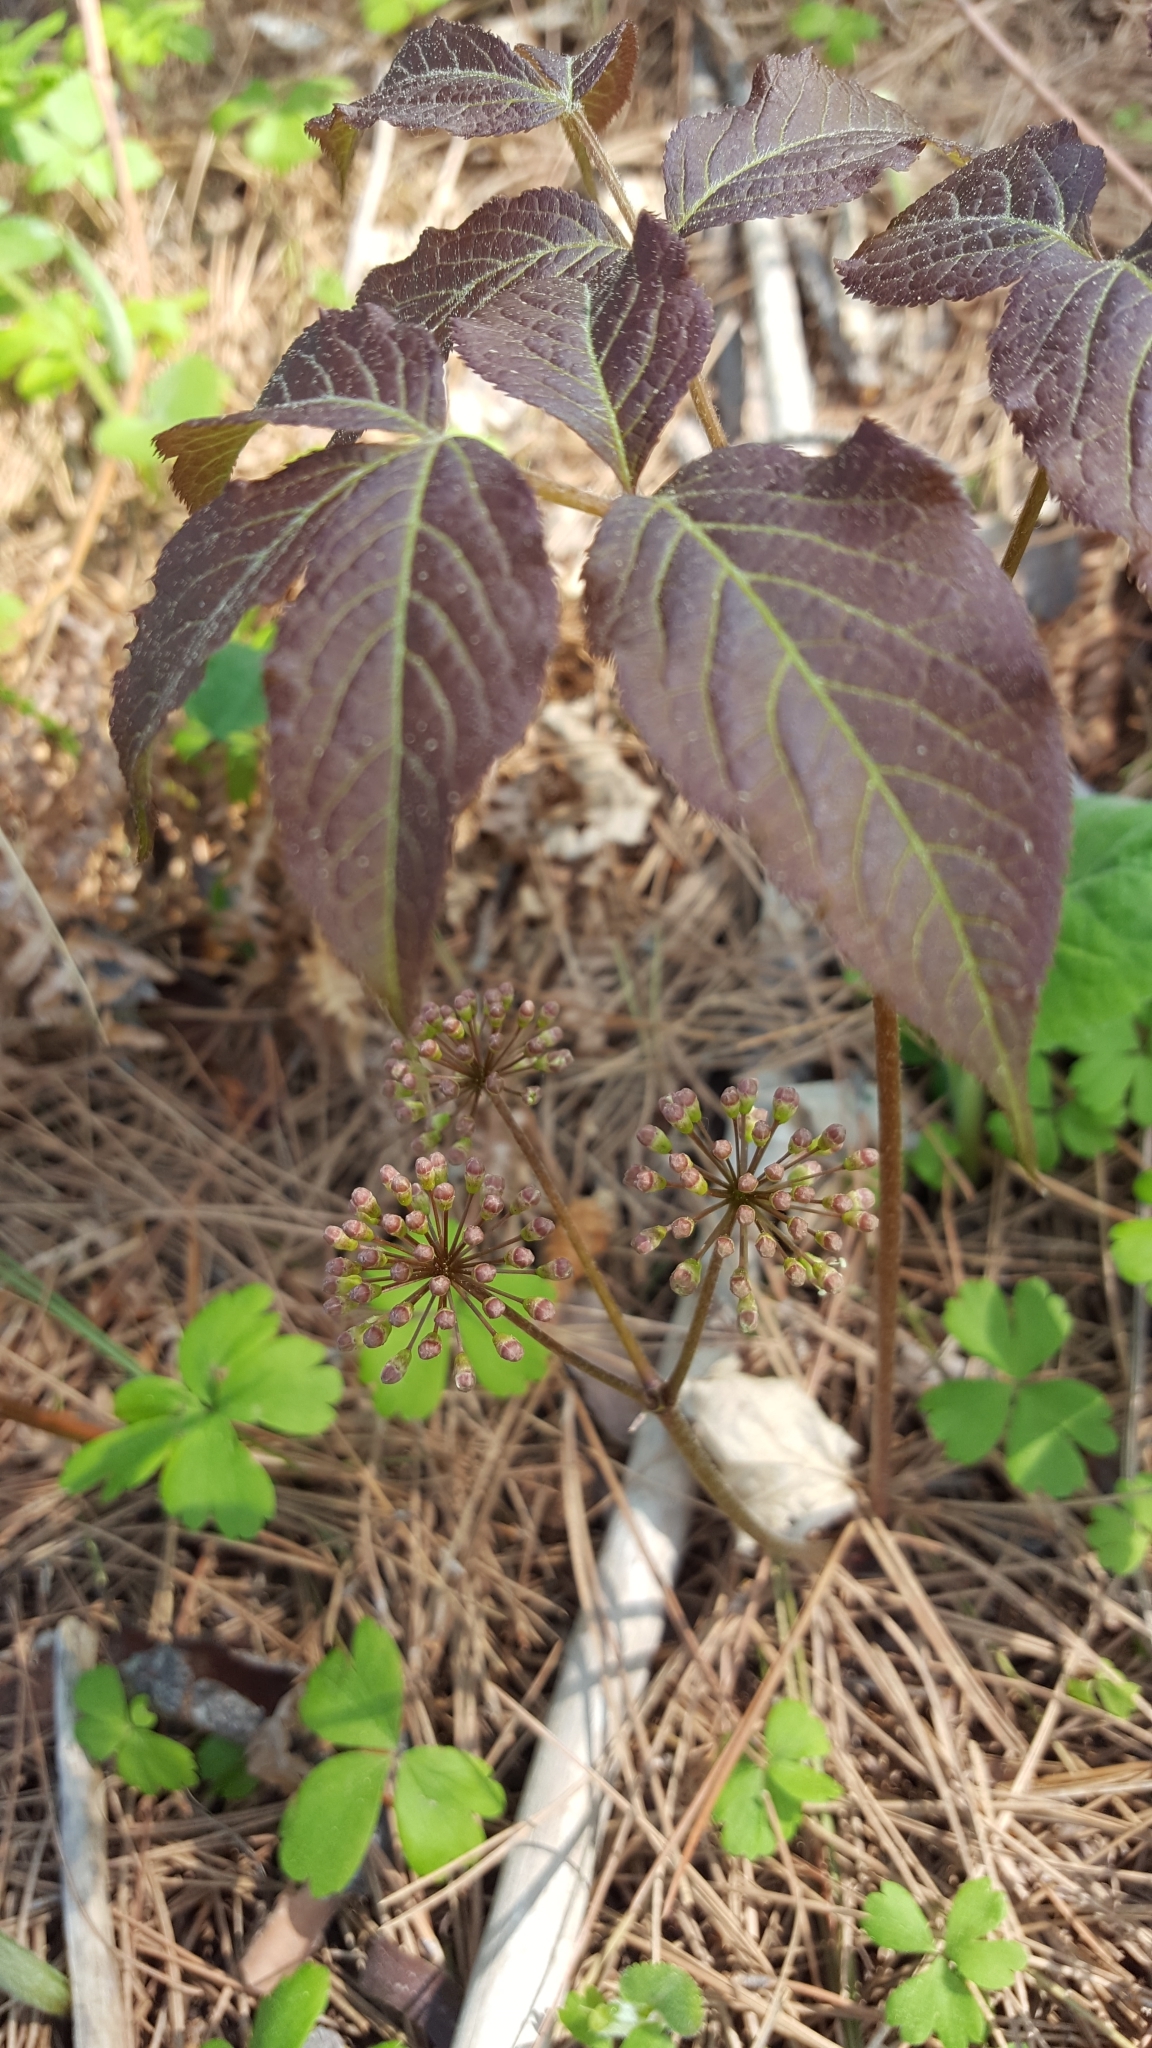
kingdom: Plantae
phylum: Tracheophyta
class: Magnoliopsida
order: Apiales
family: Araliaceae
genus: Aralia
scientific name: Aralia nudicaulis
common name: Wild sarsaparilla
